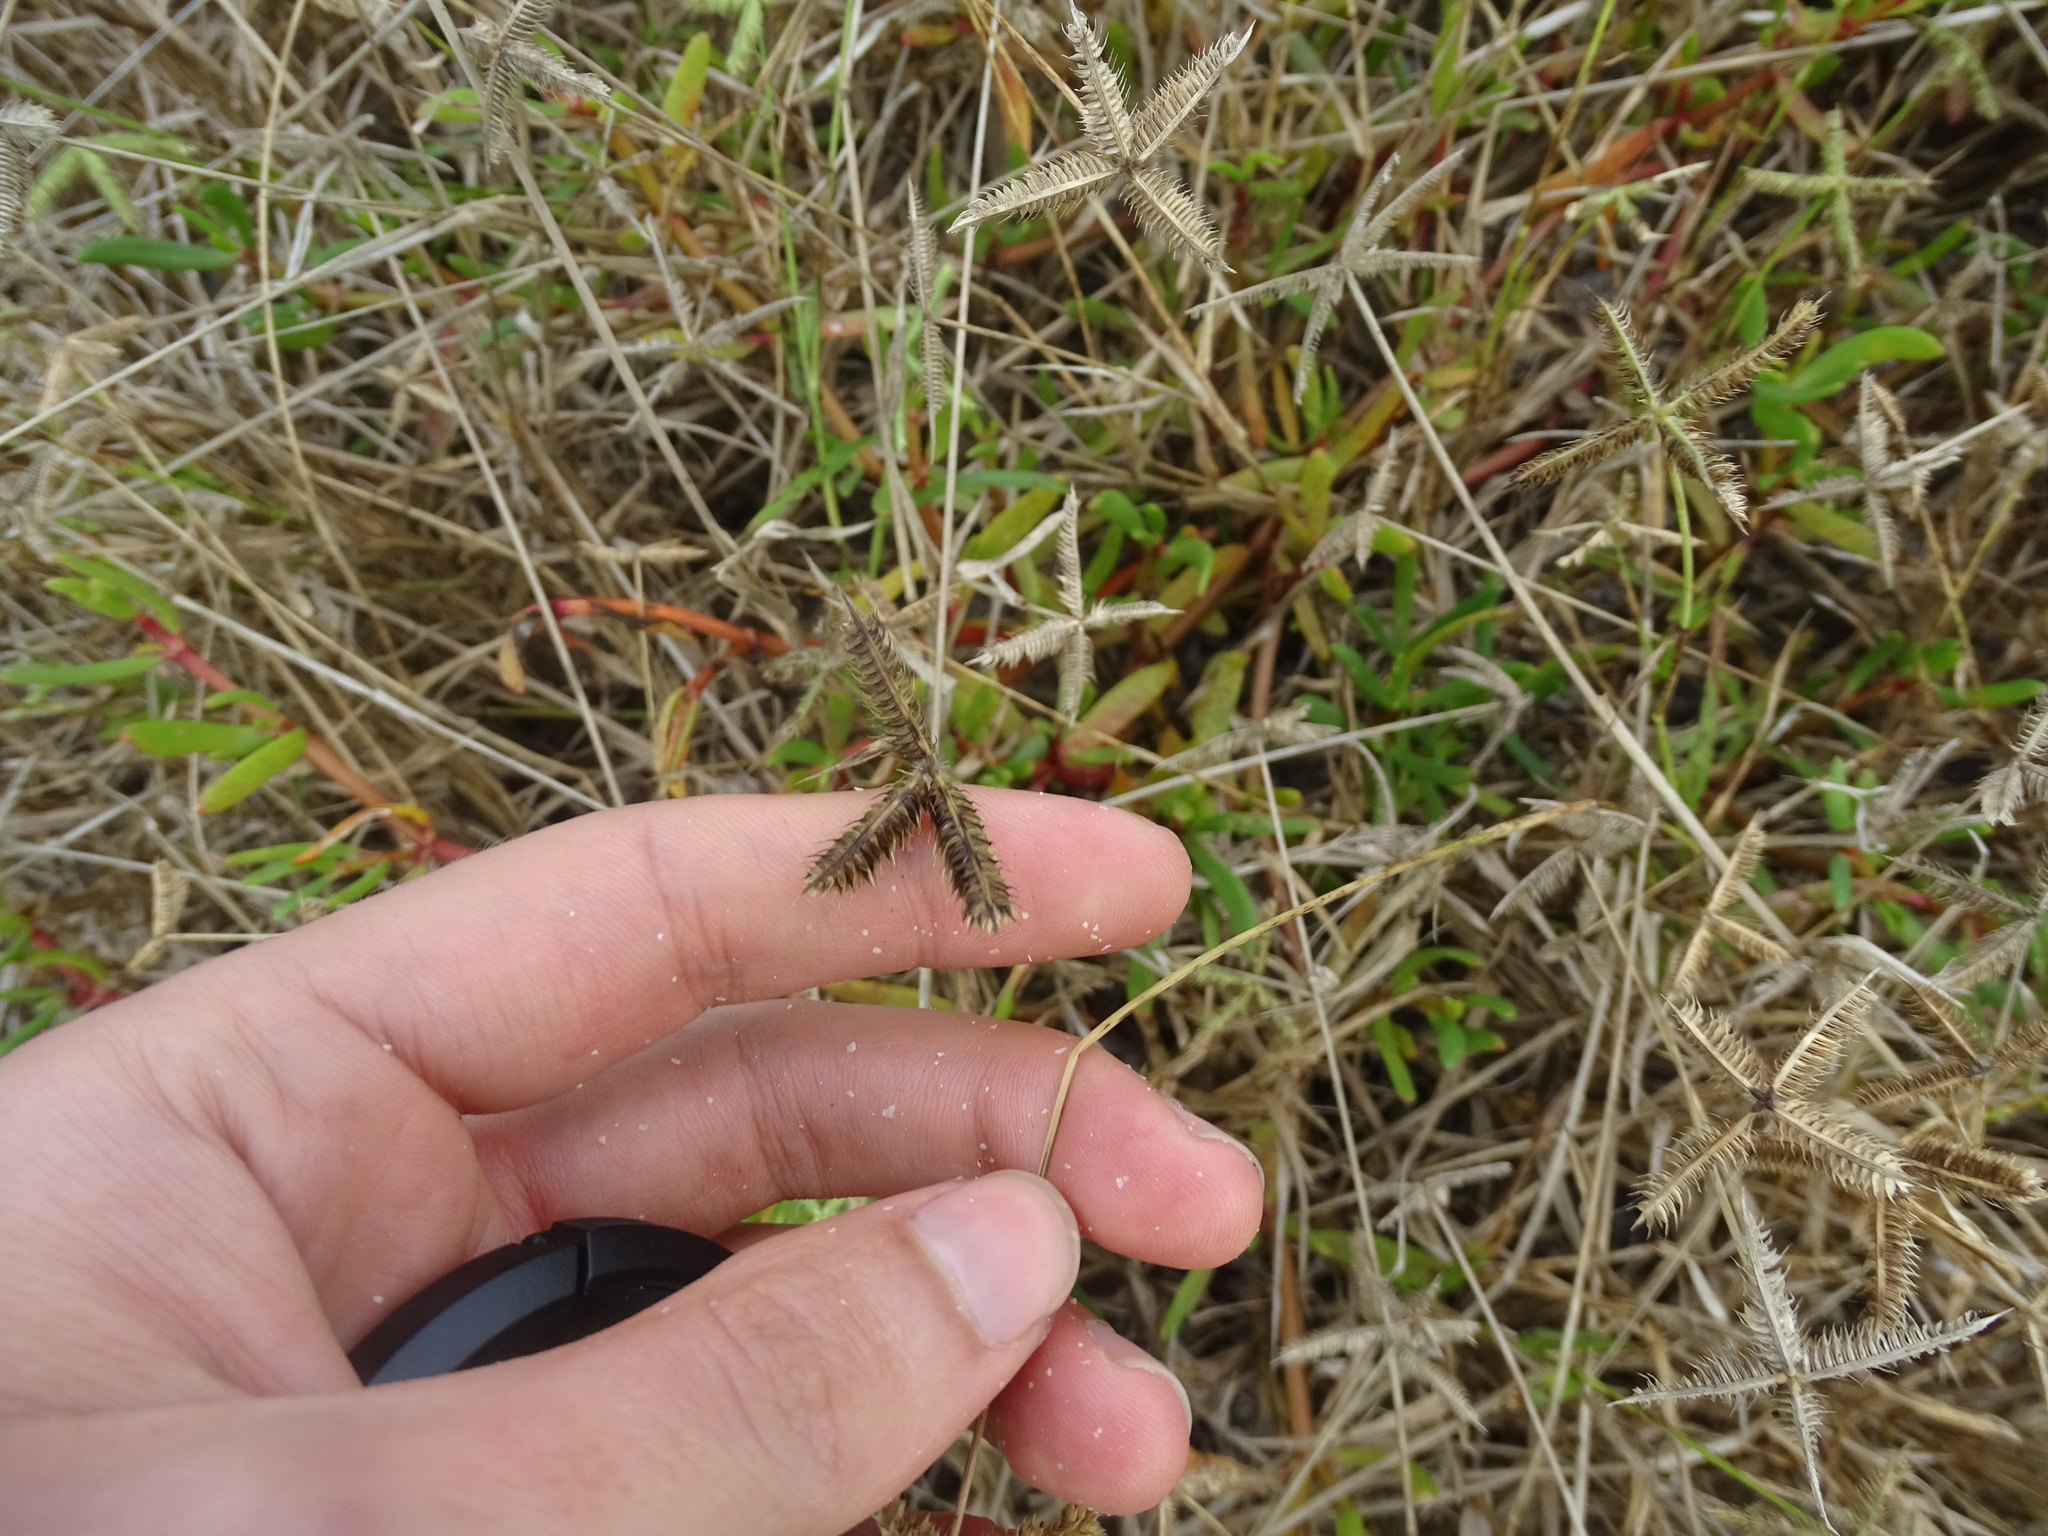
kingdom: Plantae
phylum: Tracheophyta
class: Liliopsida
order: Poales
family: Poaceae
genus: Dactyloctenium
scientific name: Dactyloctenium aegyptium
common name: Egyptian grass
